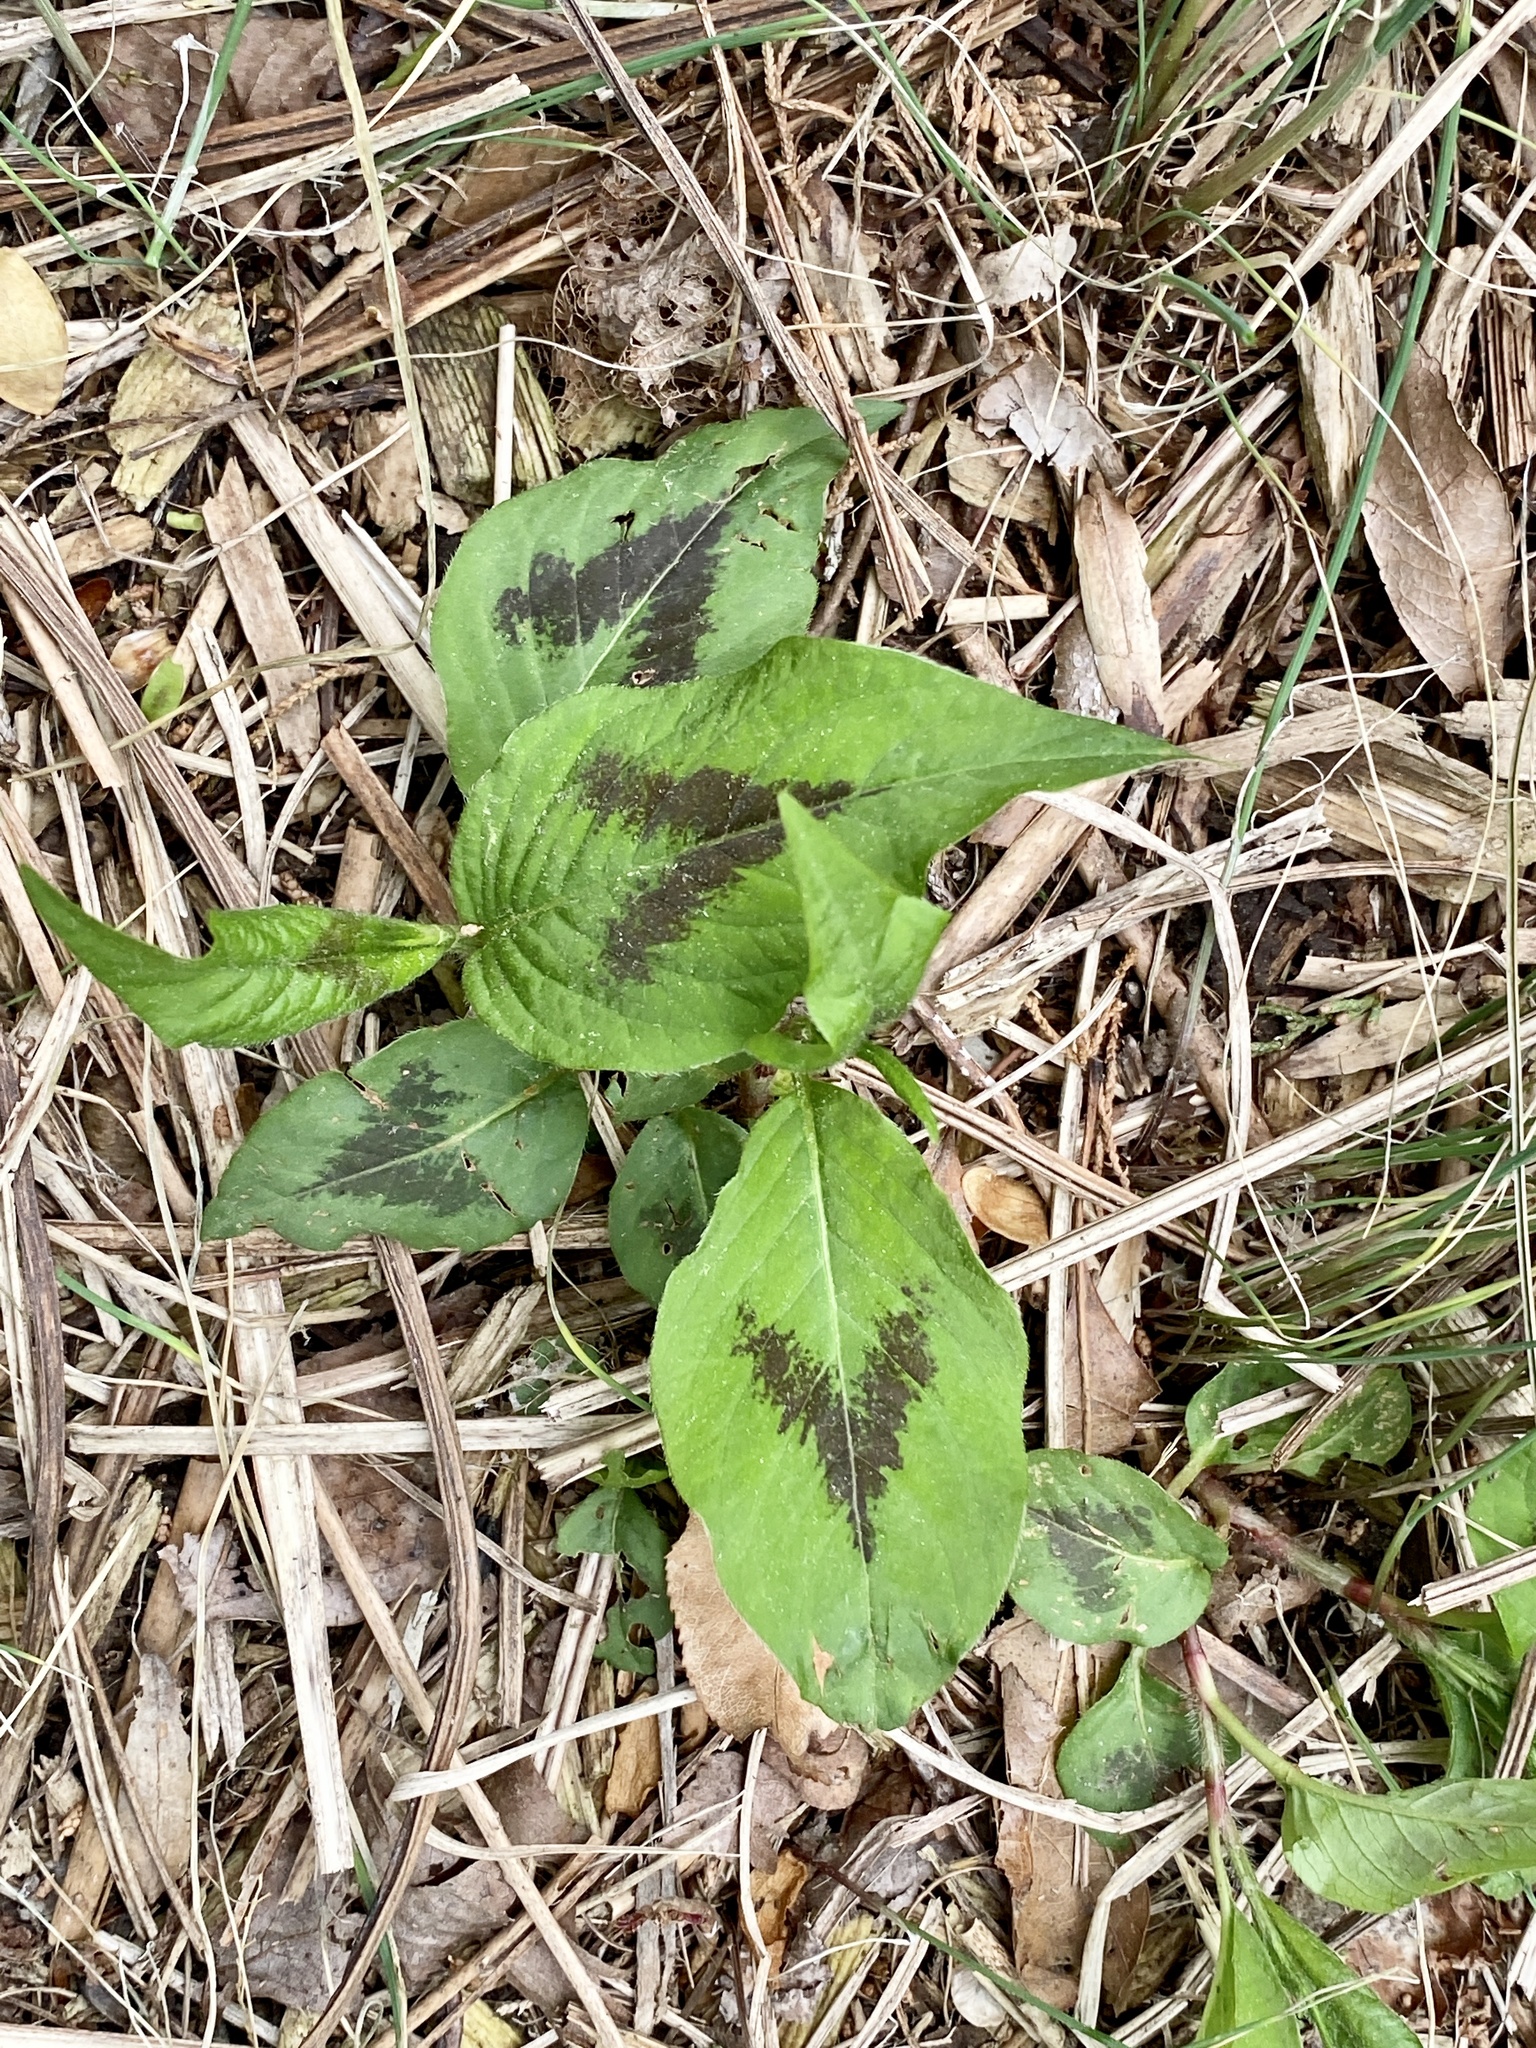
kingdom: Plantae
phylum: Tracheophyta
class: Magnoliopsida
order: Caryophyllales
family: Polygonaceae
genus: Persicaria
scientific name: Persicaria virginiana
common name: Jumpseed
